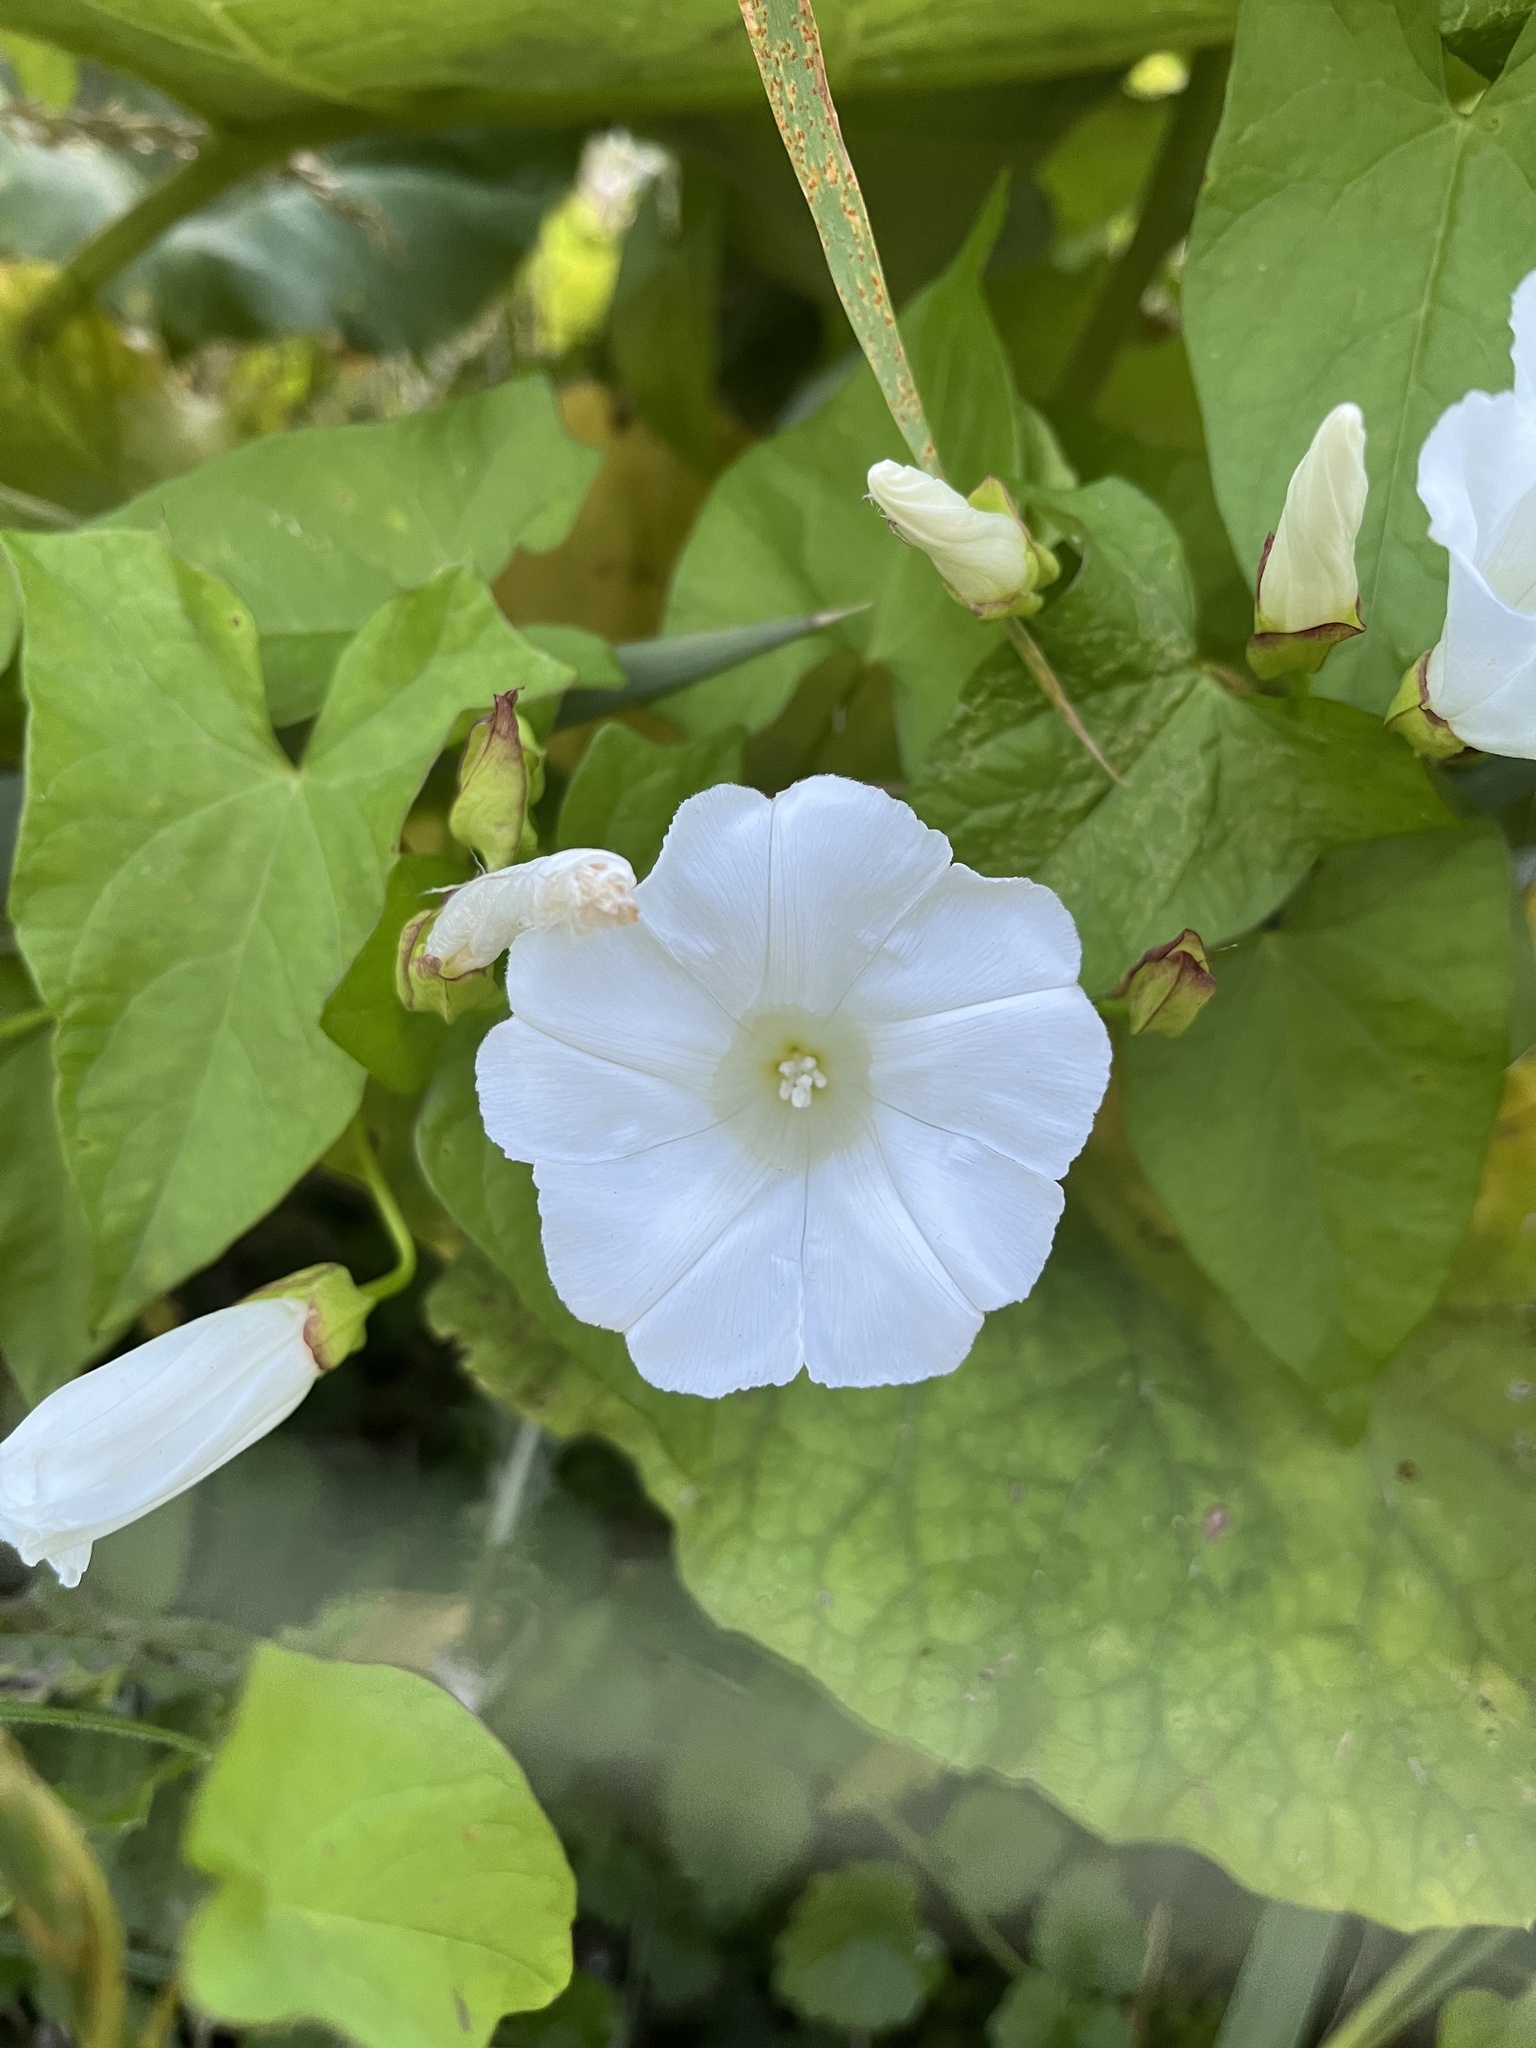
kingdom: Plantae
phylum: Tracheophyta
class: Magnoliopsida
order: Solanales
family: Convolvulaceae
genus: Calystegia
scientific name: Calystegia sepium
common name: Hedge bindweed
